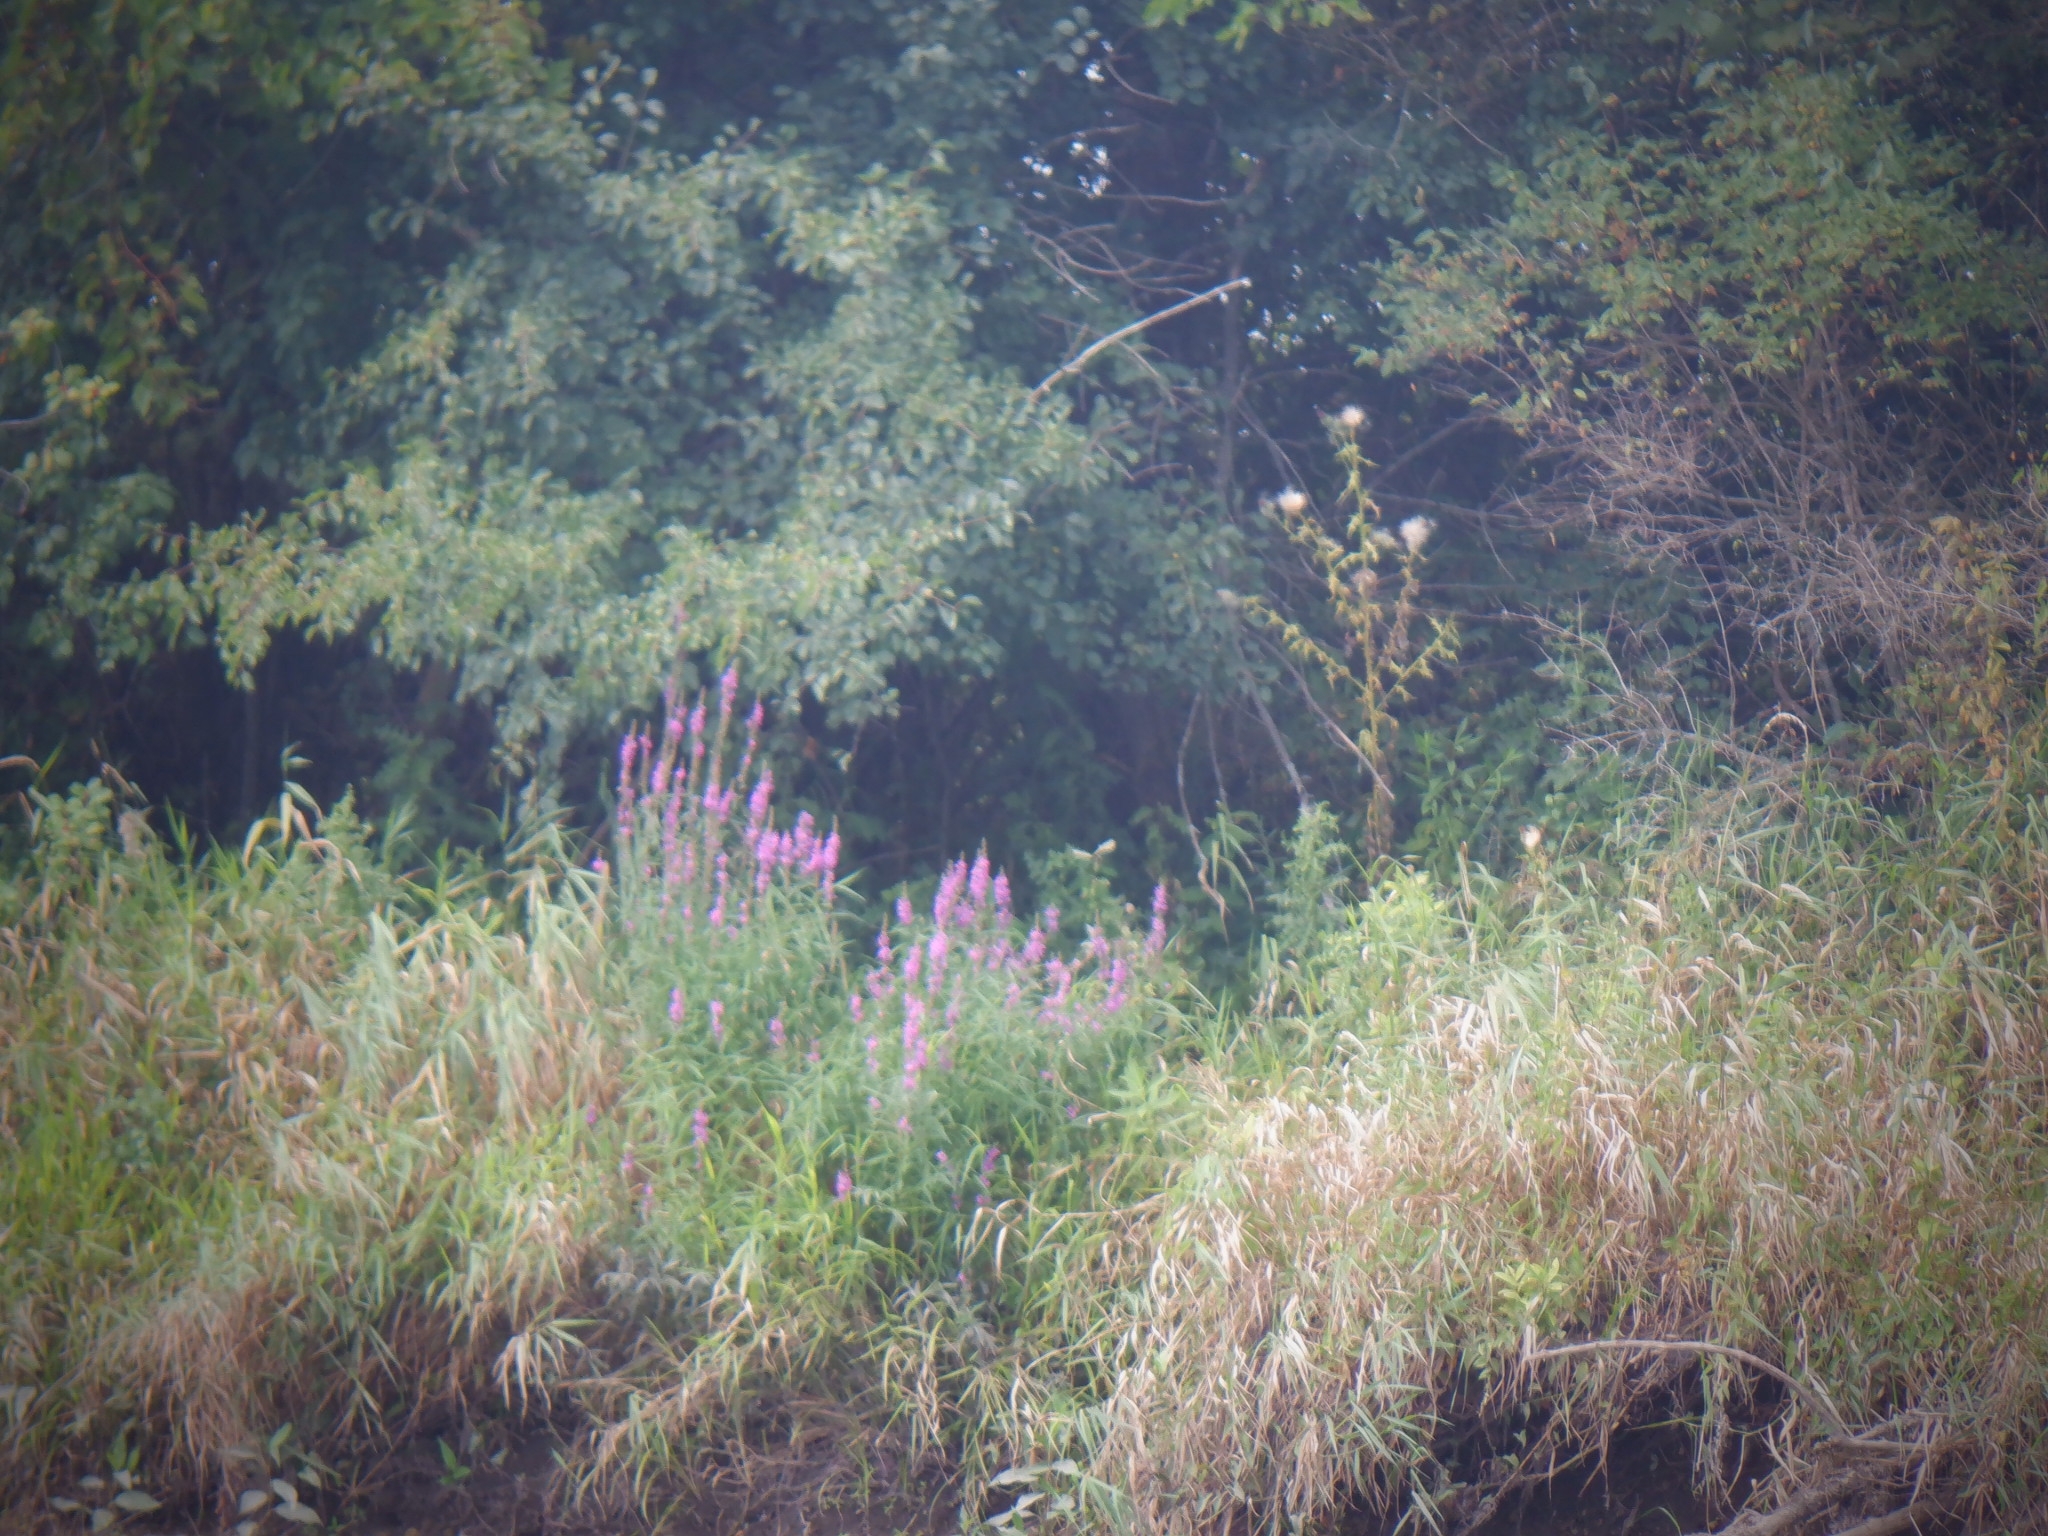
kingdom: Plantae
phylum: Tracheophyta
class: Magnoliopsida
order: Myrtales
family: Lythraceae
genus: Lythrum
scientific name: Lythrum salicaria
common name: Purple loosestrife
